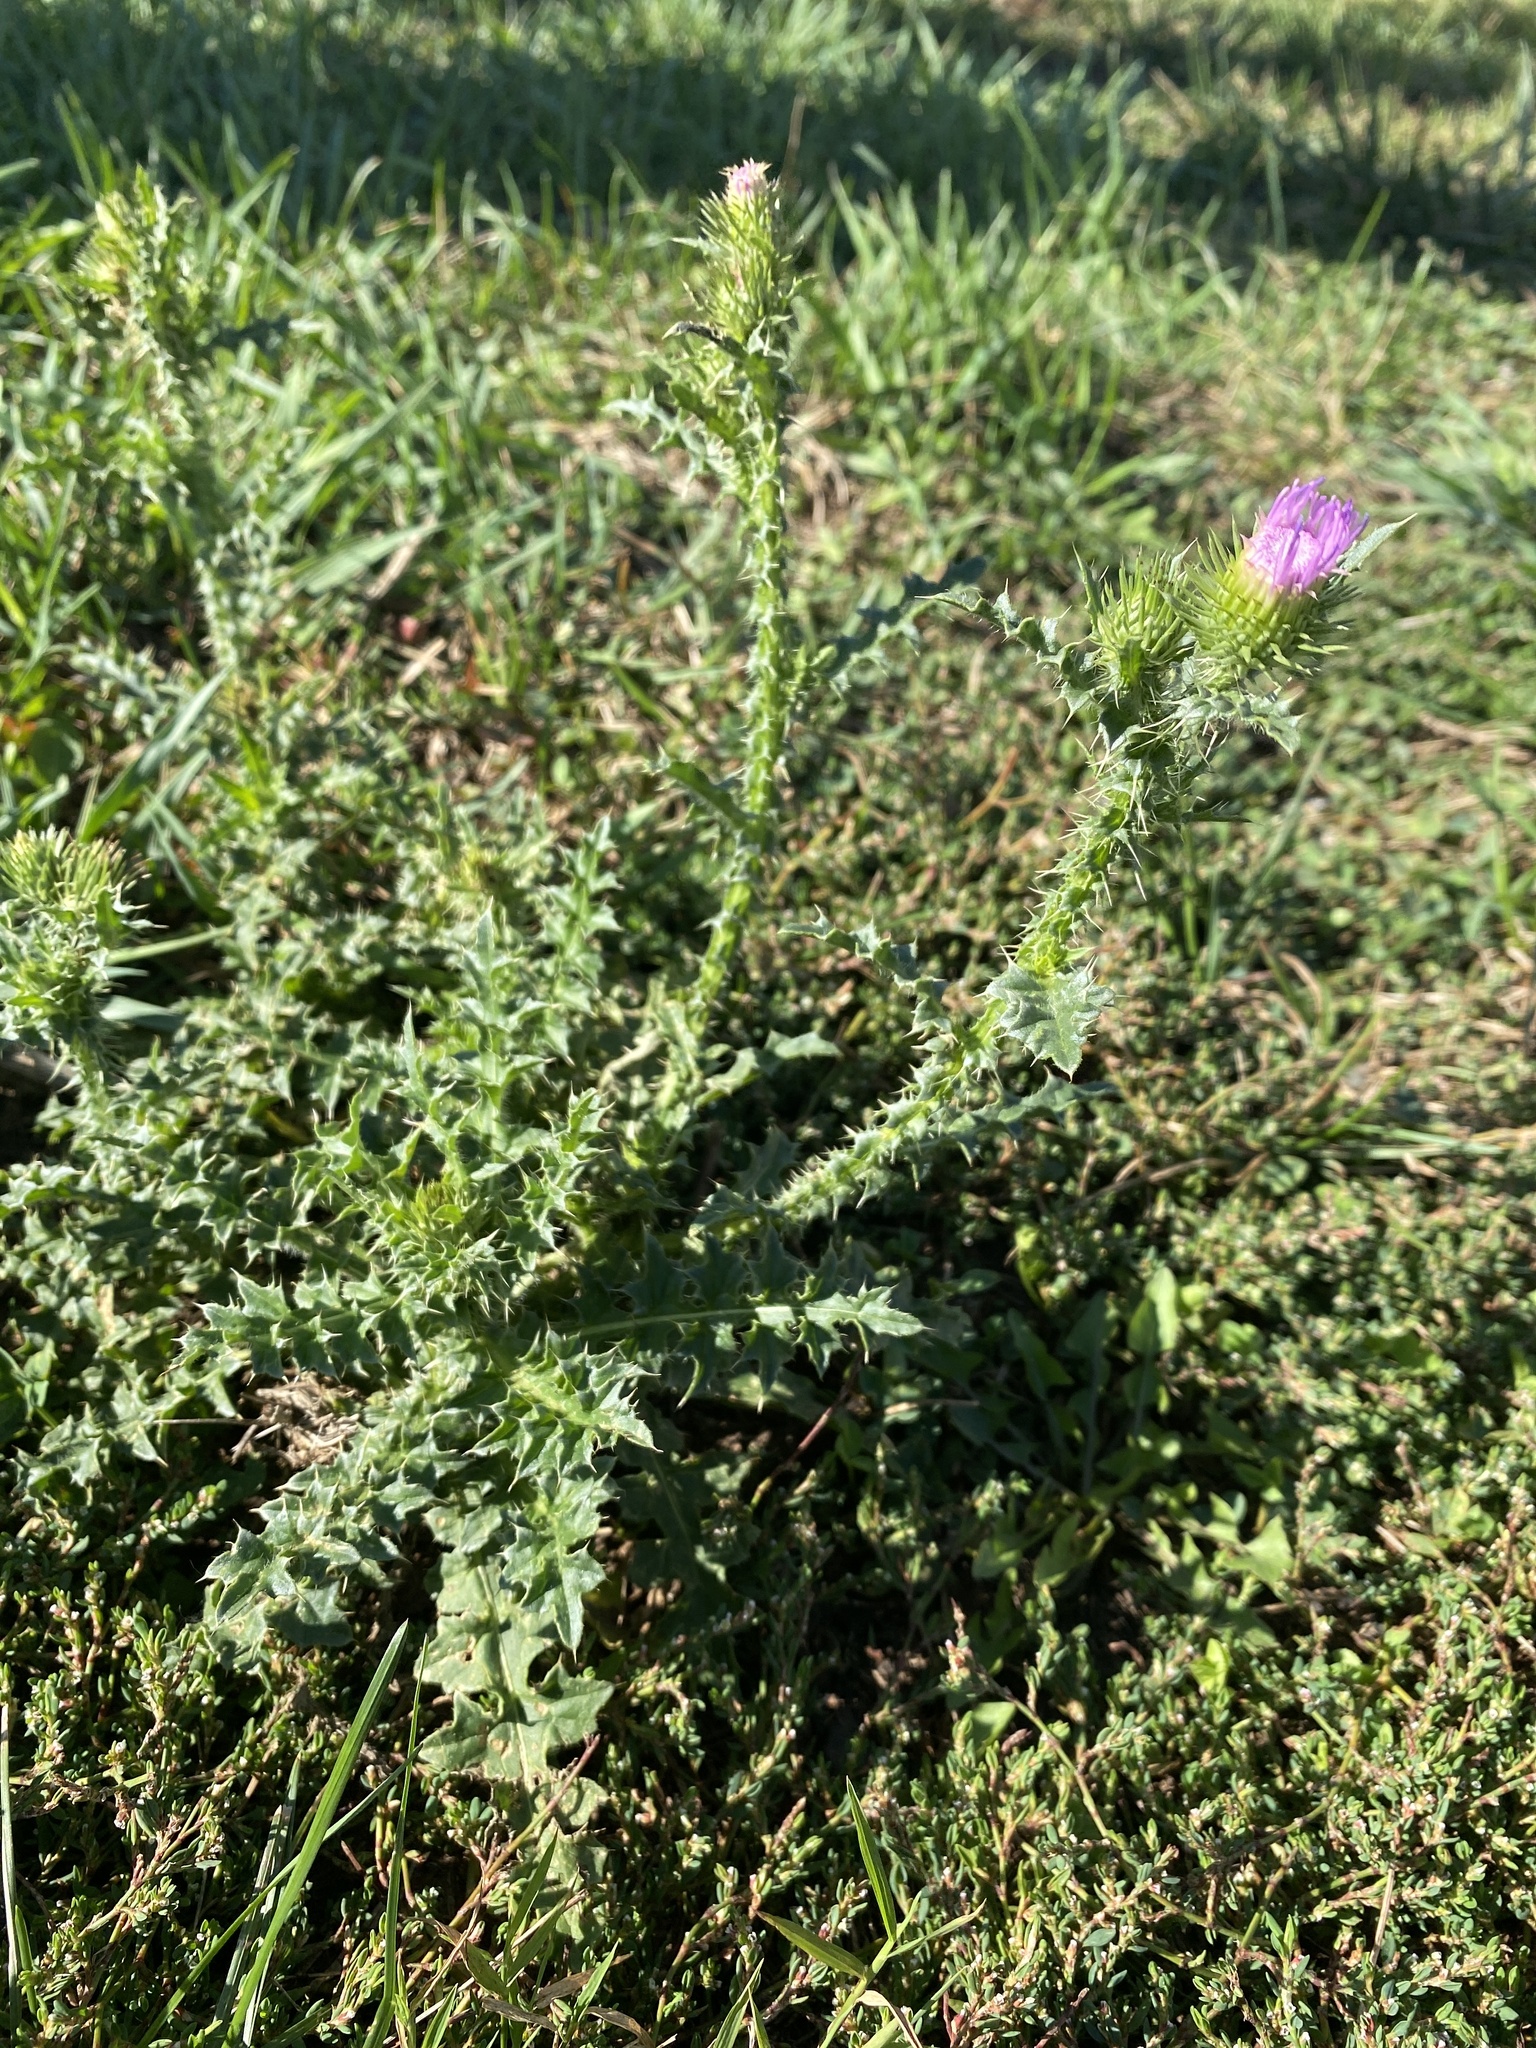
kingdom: Plantae
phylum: Tracheophyta
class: Magnoliopsida
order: Asterales
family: Asteraceae
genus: Carduus
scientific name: Carduus acanthoides
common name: Plumeless thistle
